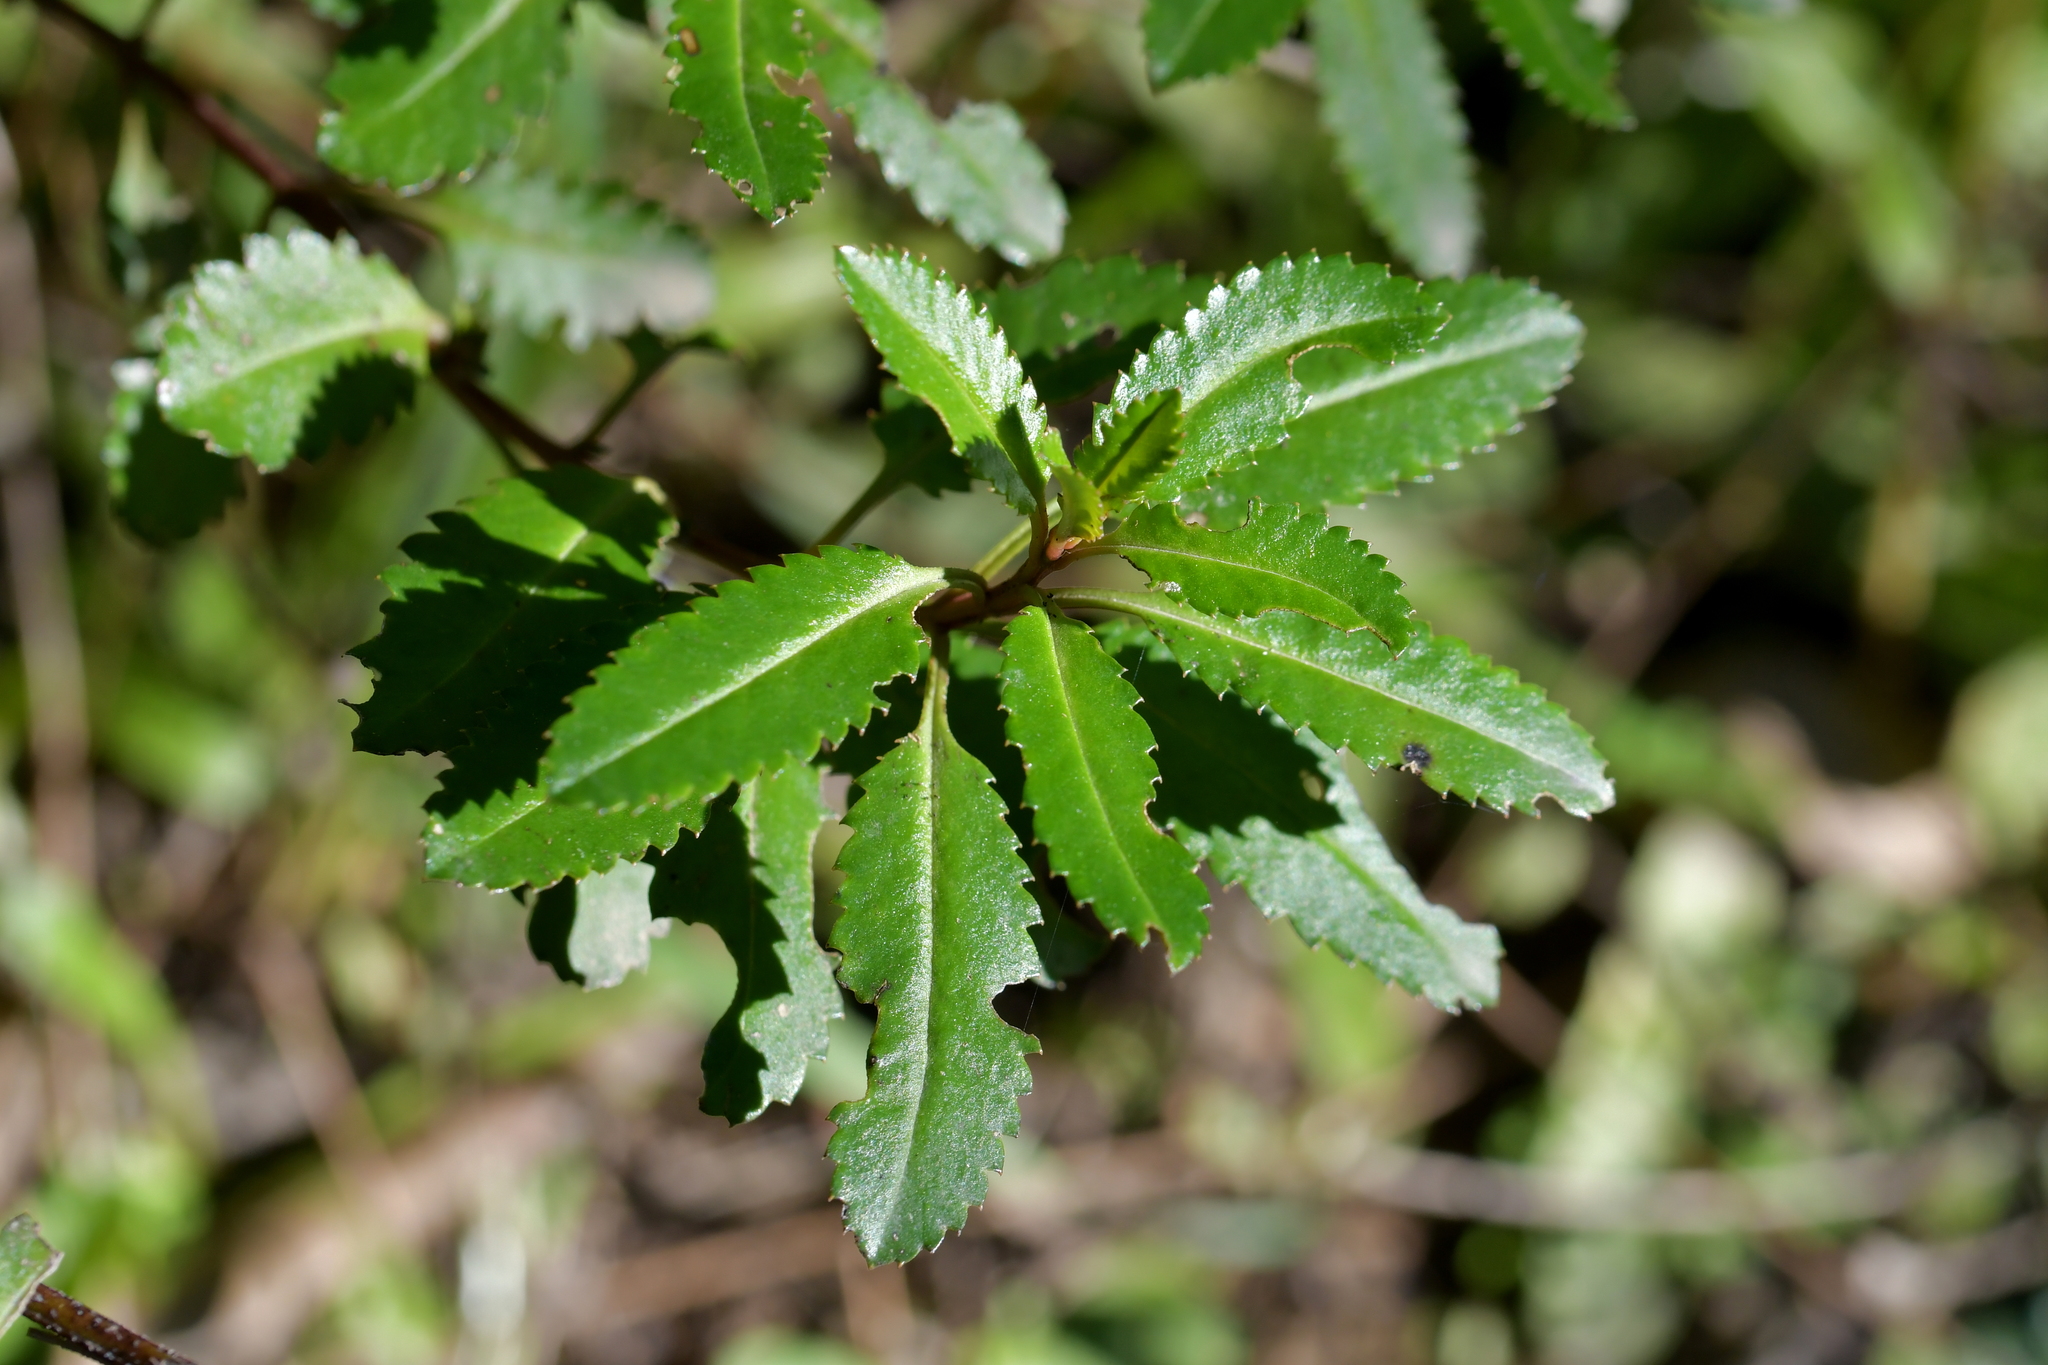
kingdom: Plantae
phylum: Tracheophyta
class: Magnoliopsida
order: Saxifragales
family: Haloragaceae
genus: Haloragis
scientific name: Haloragis erecta
